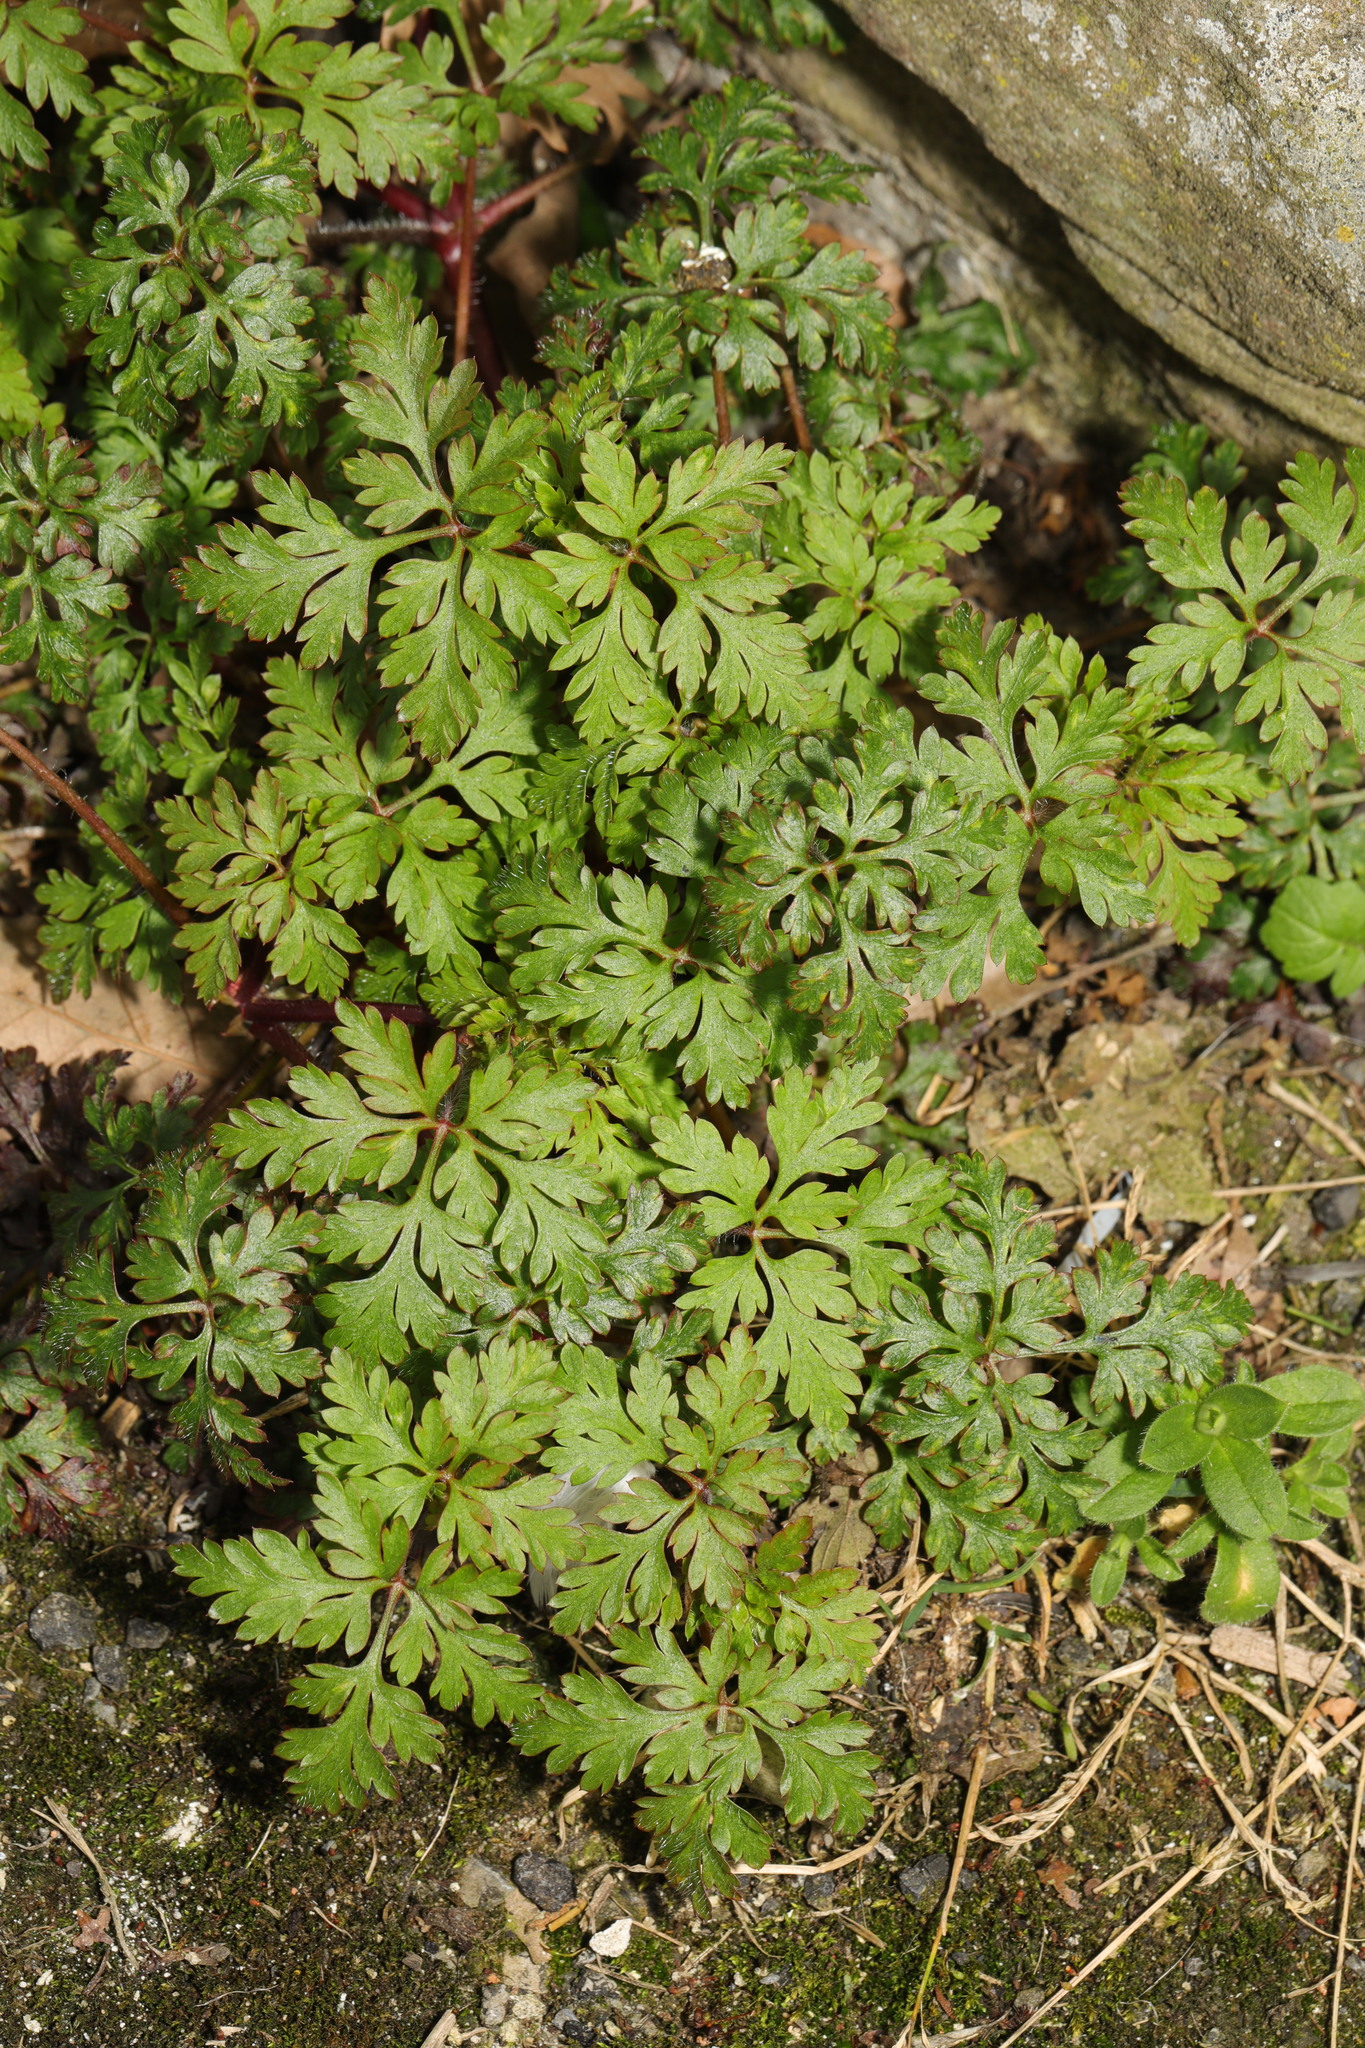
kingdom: Plantae
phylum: Tracheophyta
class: Magnoliopsida
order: Geraniales
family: Geraniaceae
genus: Geranium
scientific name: Geranium robertianum
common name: Herb-robert
